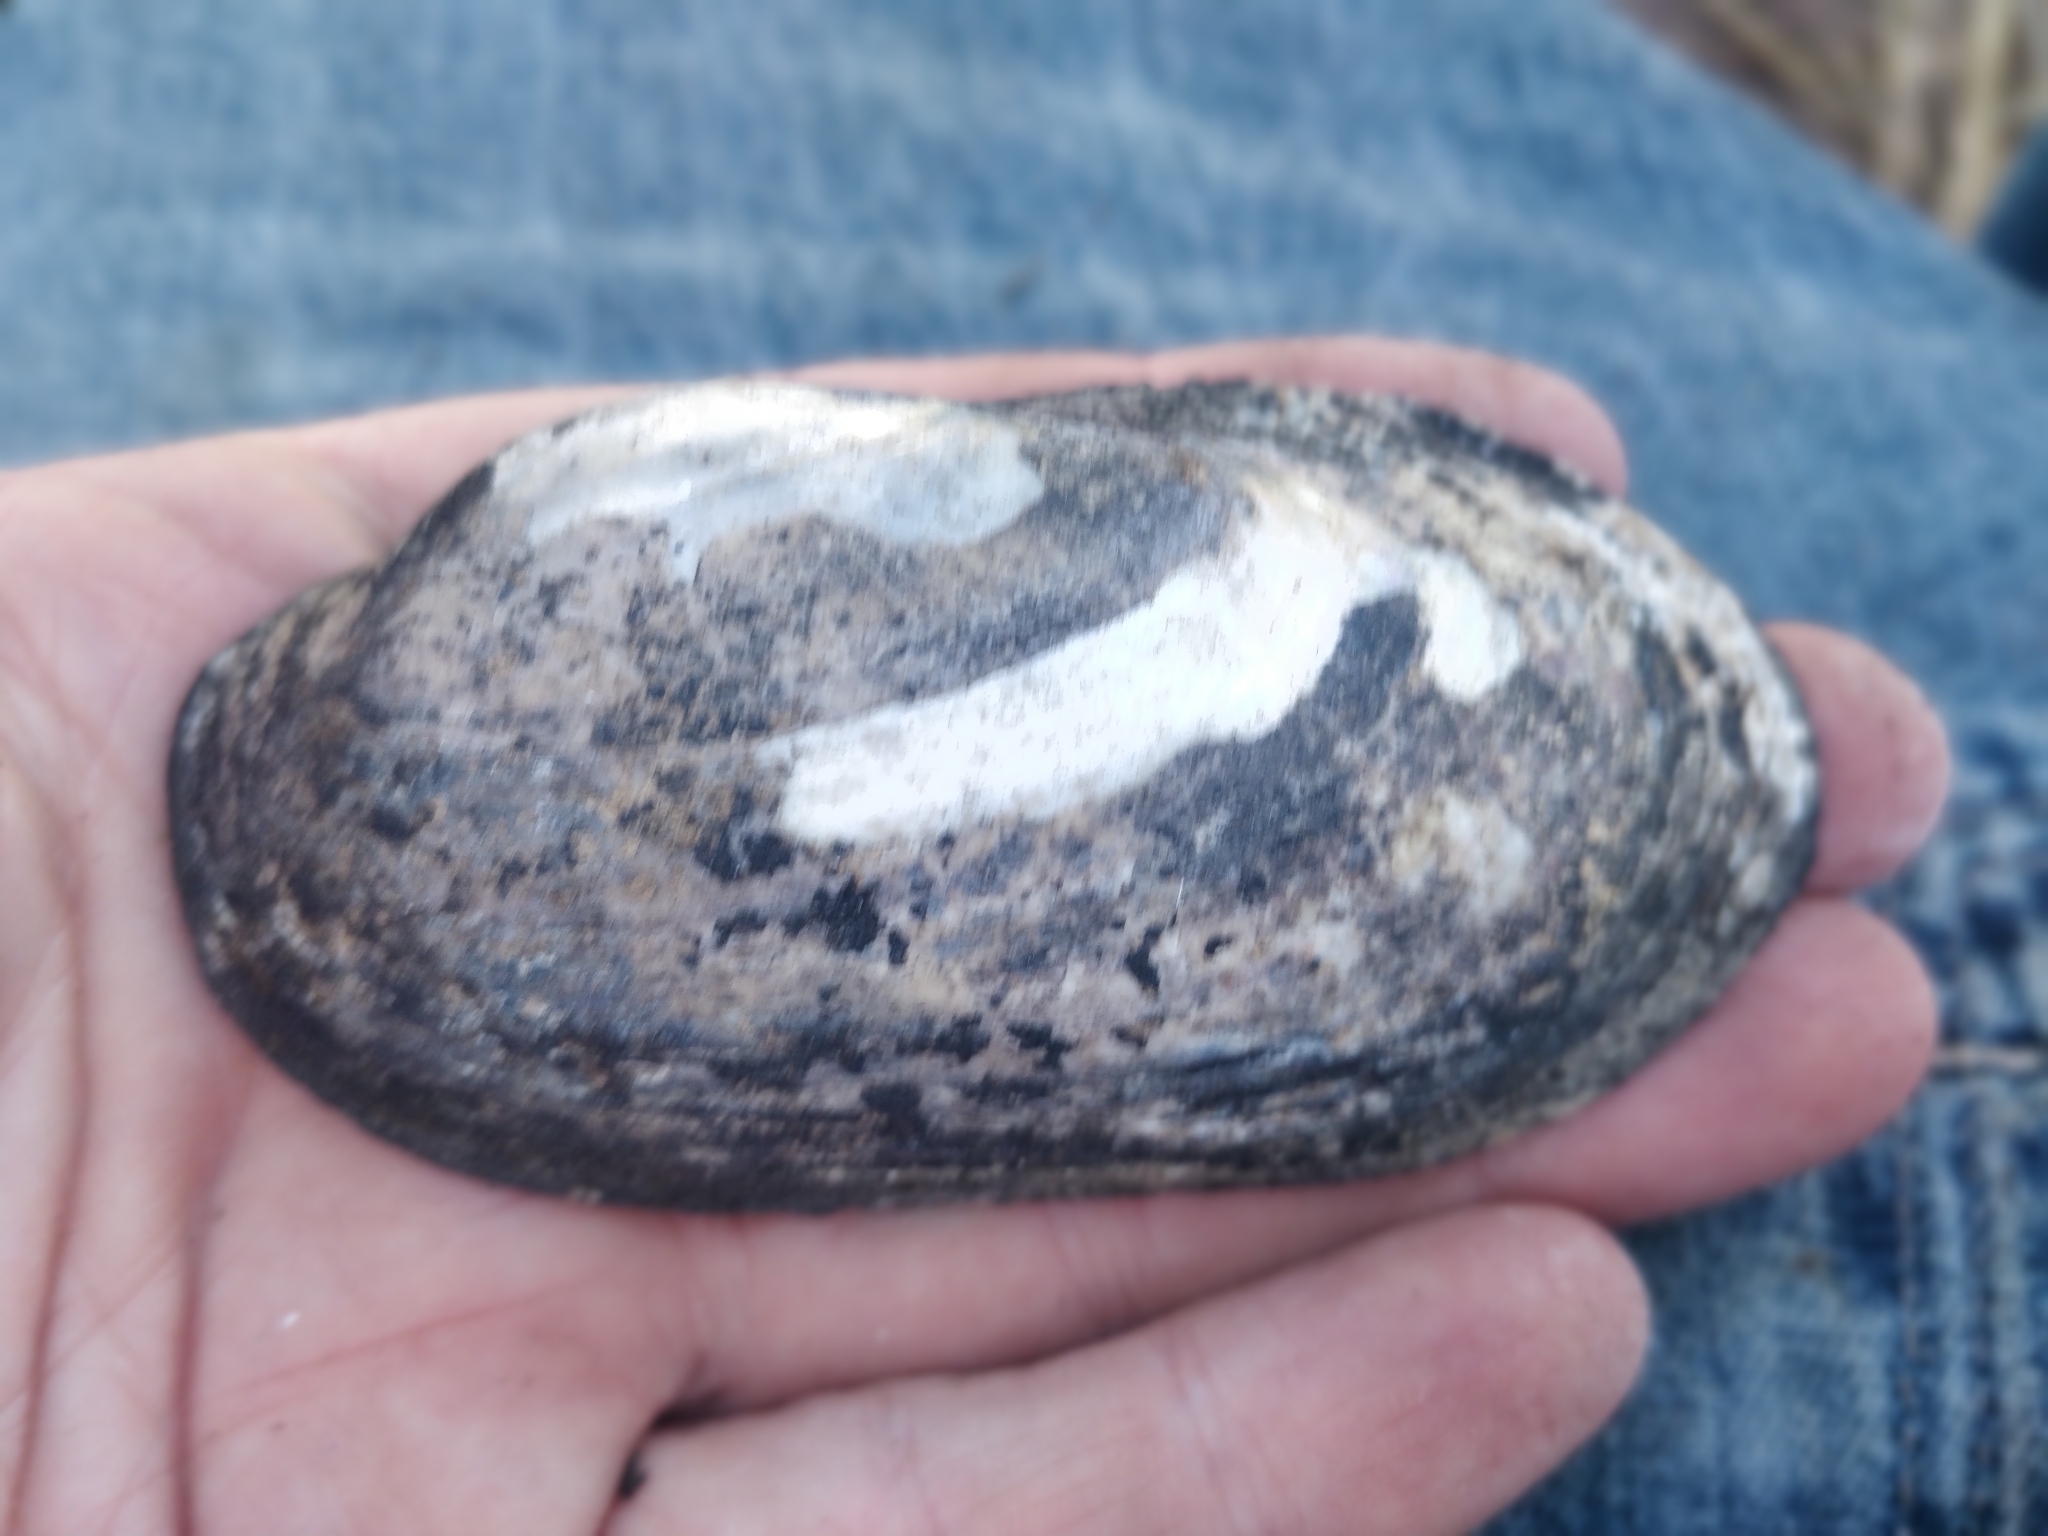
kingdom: Animalia
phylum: Mollusca
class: Bivalvia
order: Unionida
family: Unionidae
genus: Lampsilis
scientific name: Lampsilis siliquoidea
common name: Fatmucket
